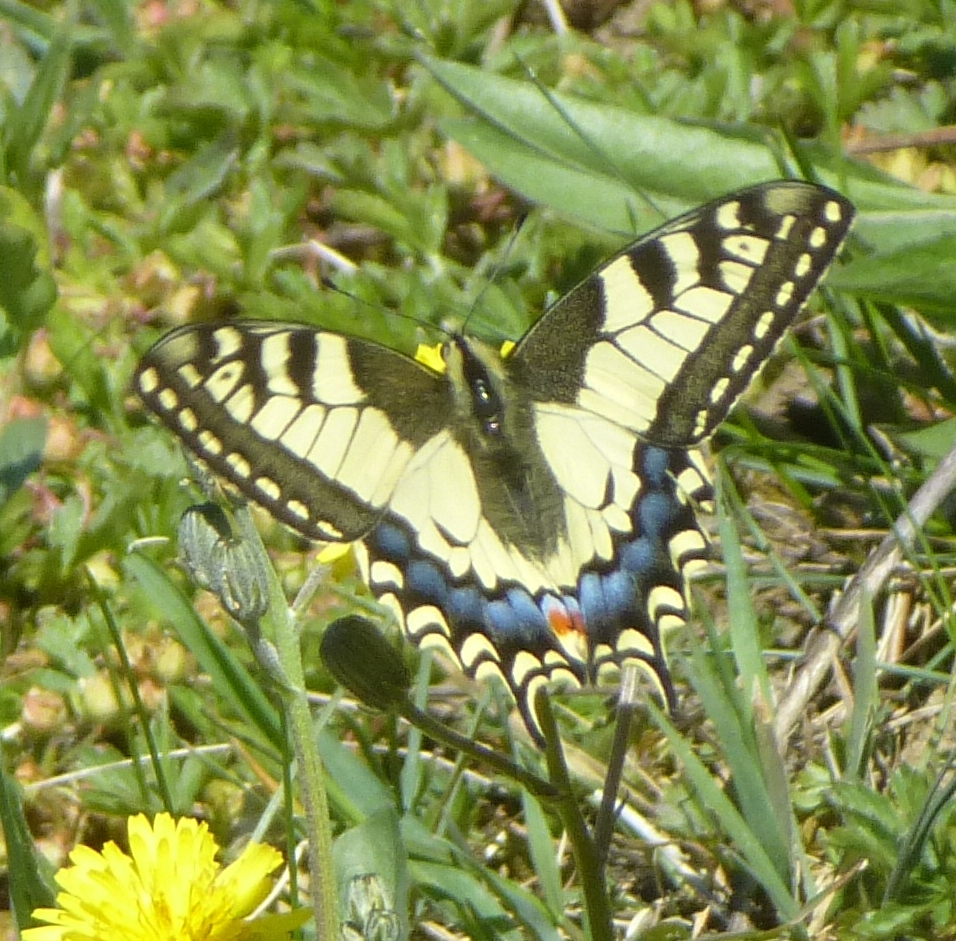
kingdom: Animalia
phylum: Arthropoda
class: Insecta
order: Lepidoptera
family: Papilionidae
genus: Papilio
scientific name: Papilio machaon
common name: Swallowtail
